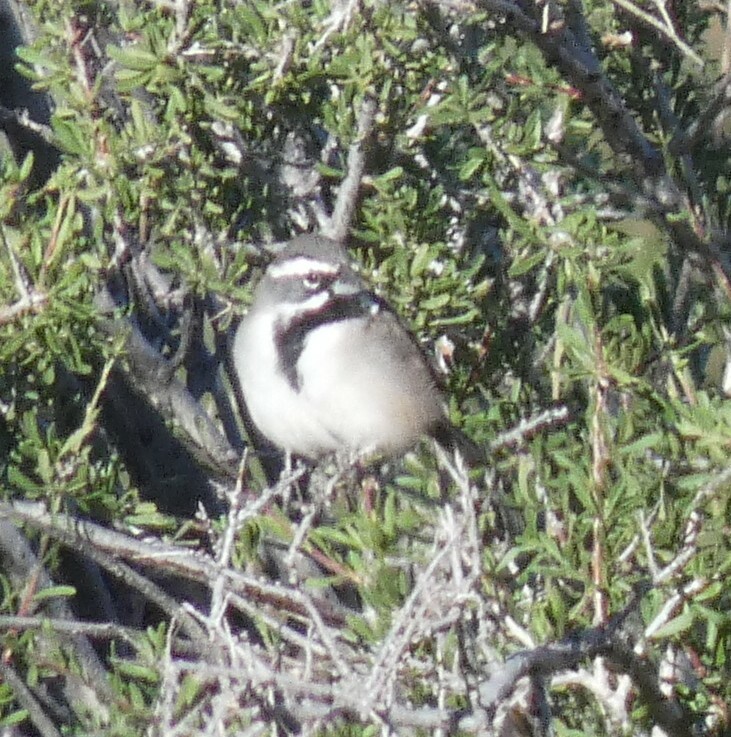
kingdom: Animalia
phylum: Chordata
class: Aves
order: Passeriformes
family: Passerellidae
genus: Amphispiza
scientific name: Amphispiza bilineata
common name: Black-throated sparrow
